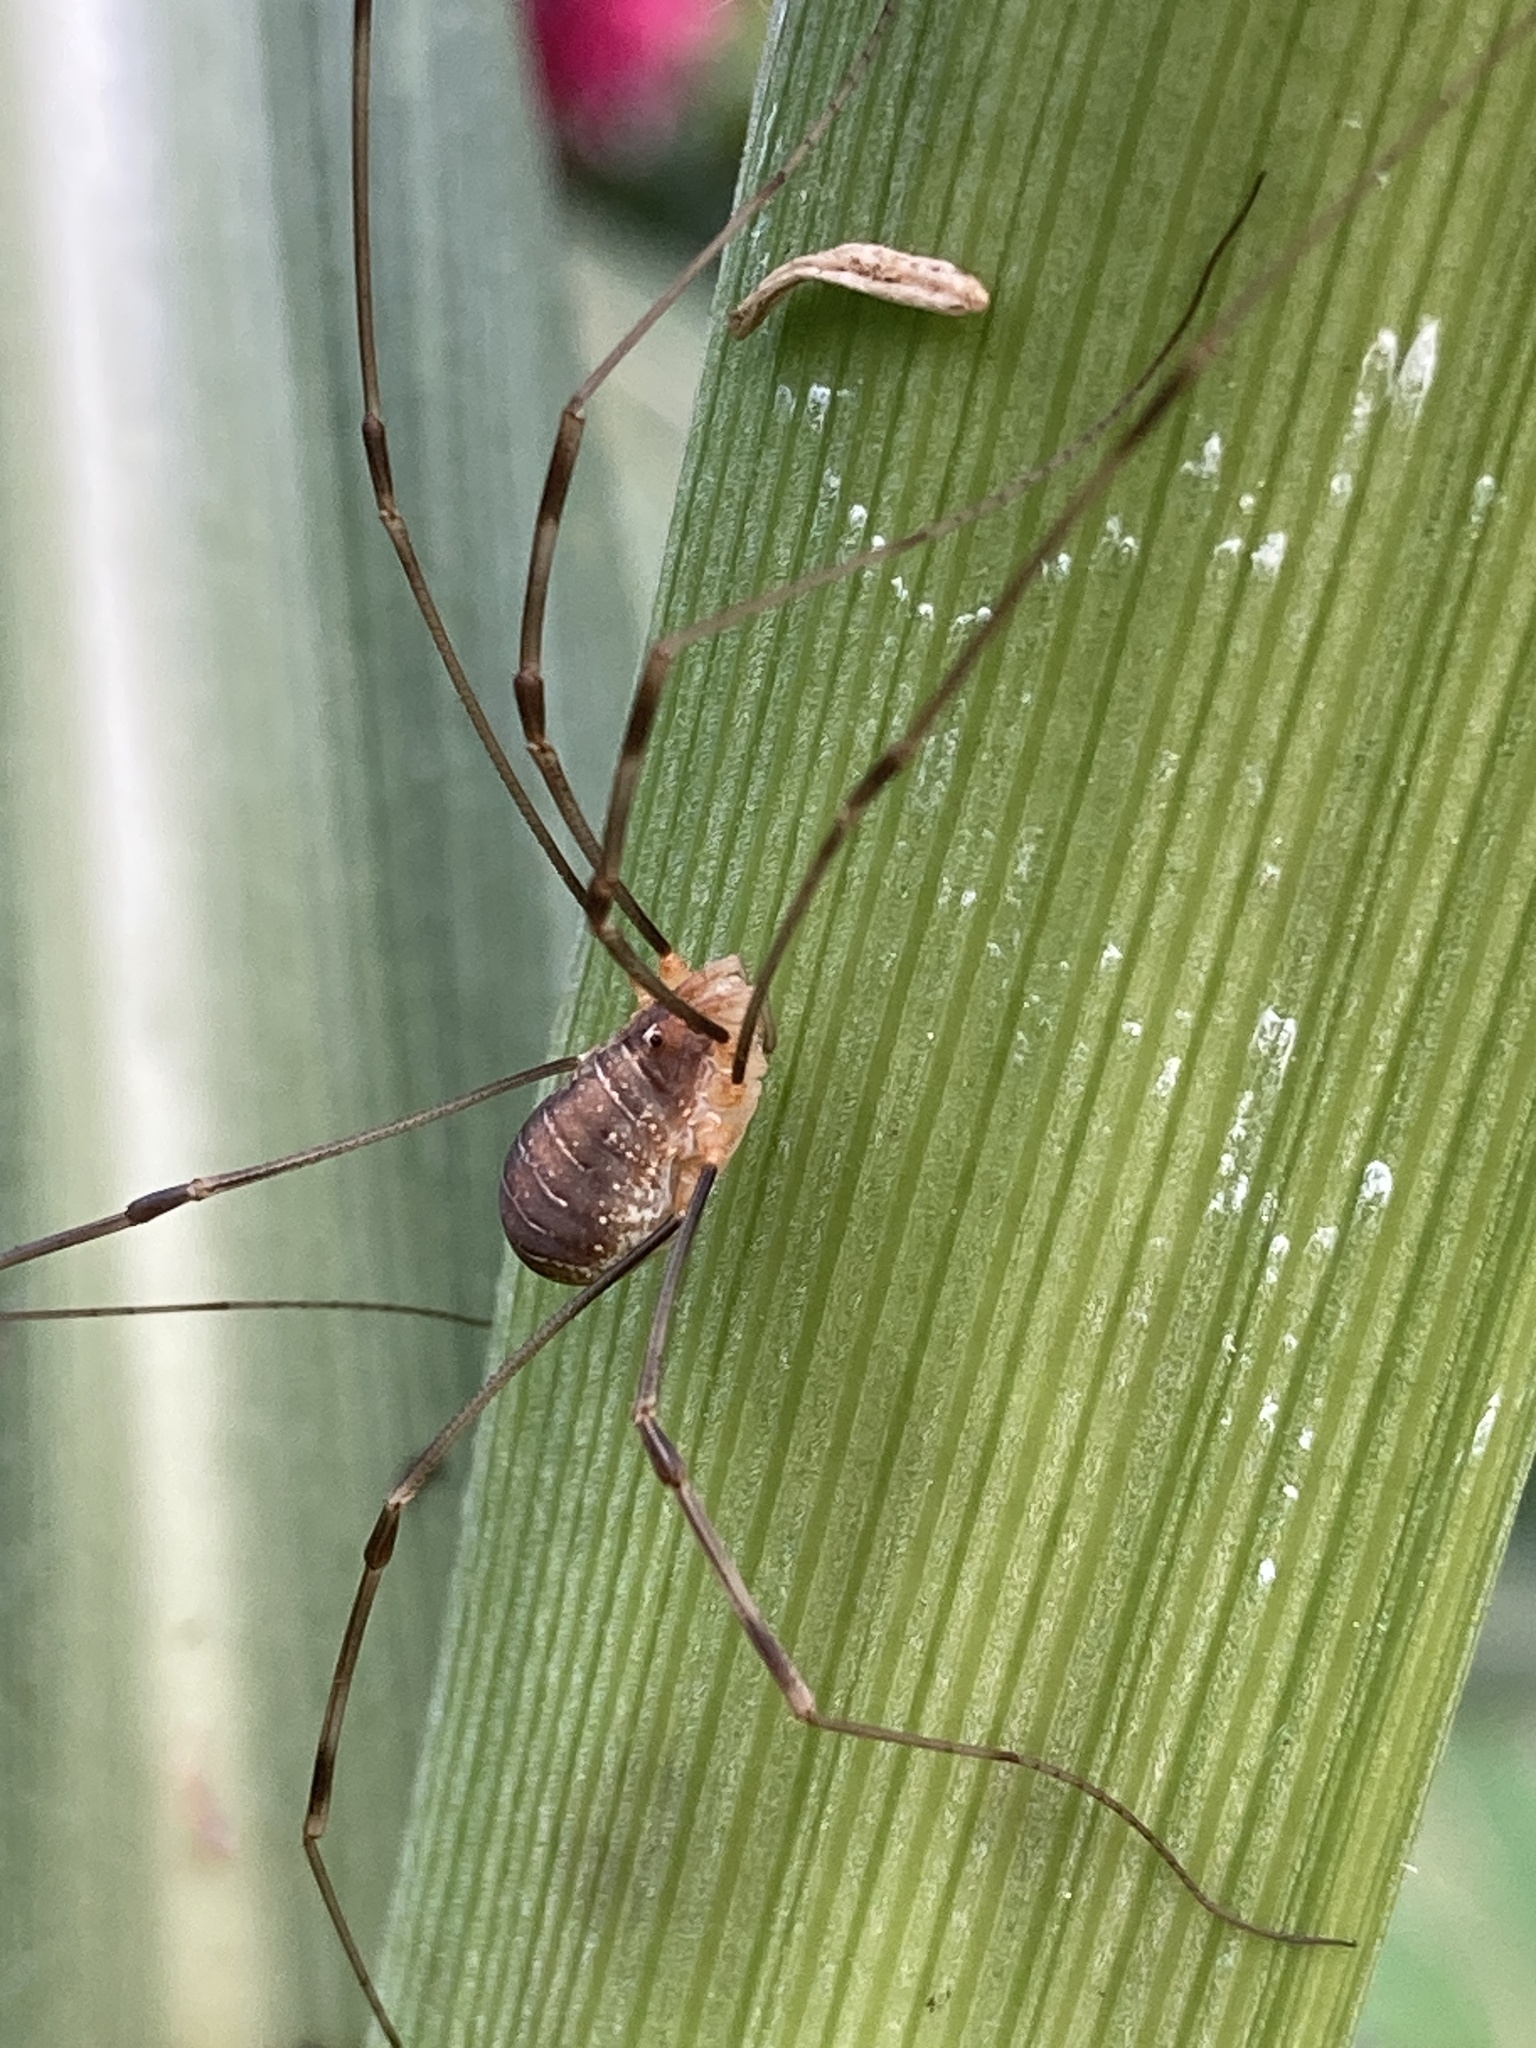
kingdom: Animalia
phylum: Arthropoda
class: Arachnida
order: Opiliones
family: Phalangiidae
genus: Opilio
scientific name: Opilio canestrinii
